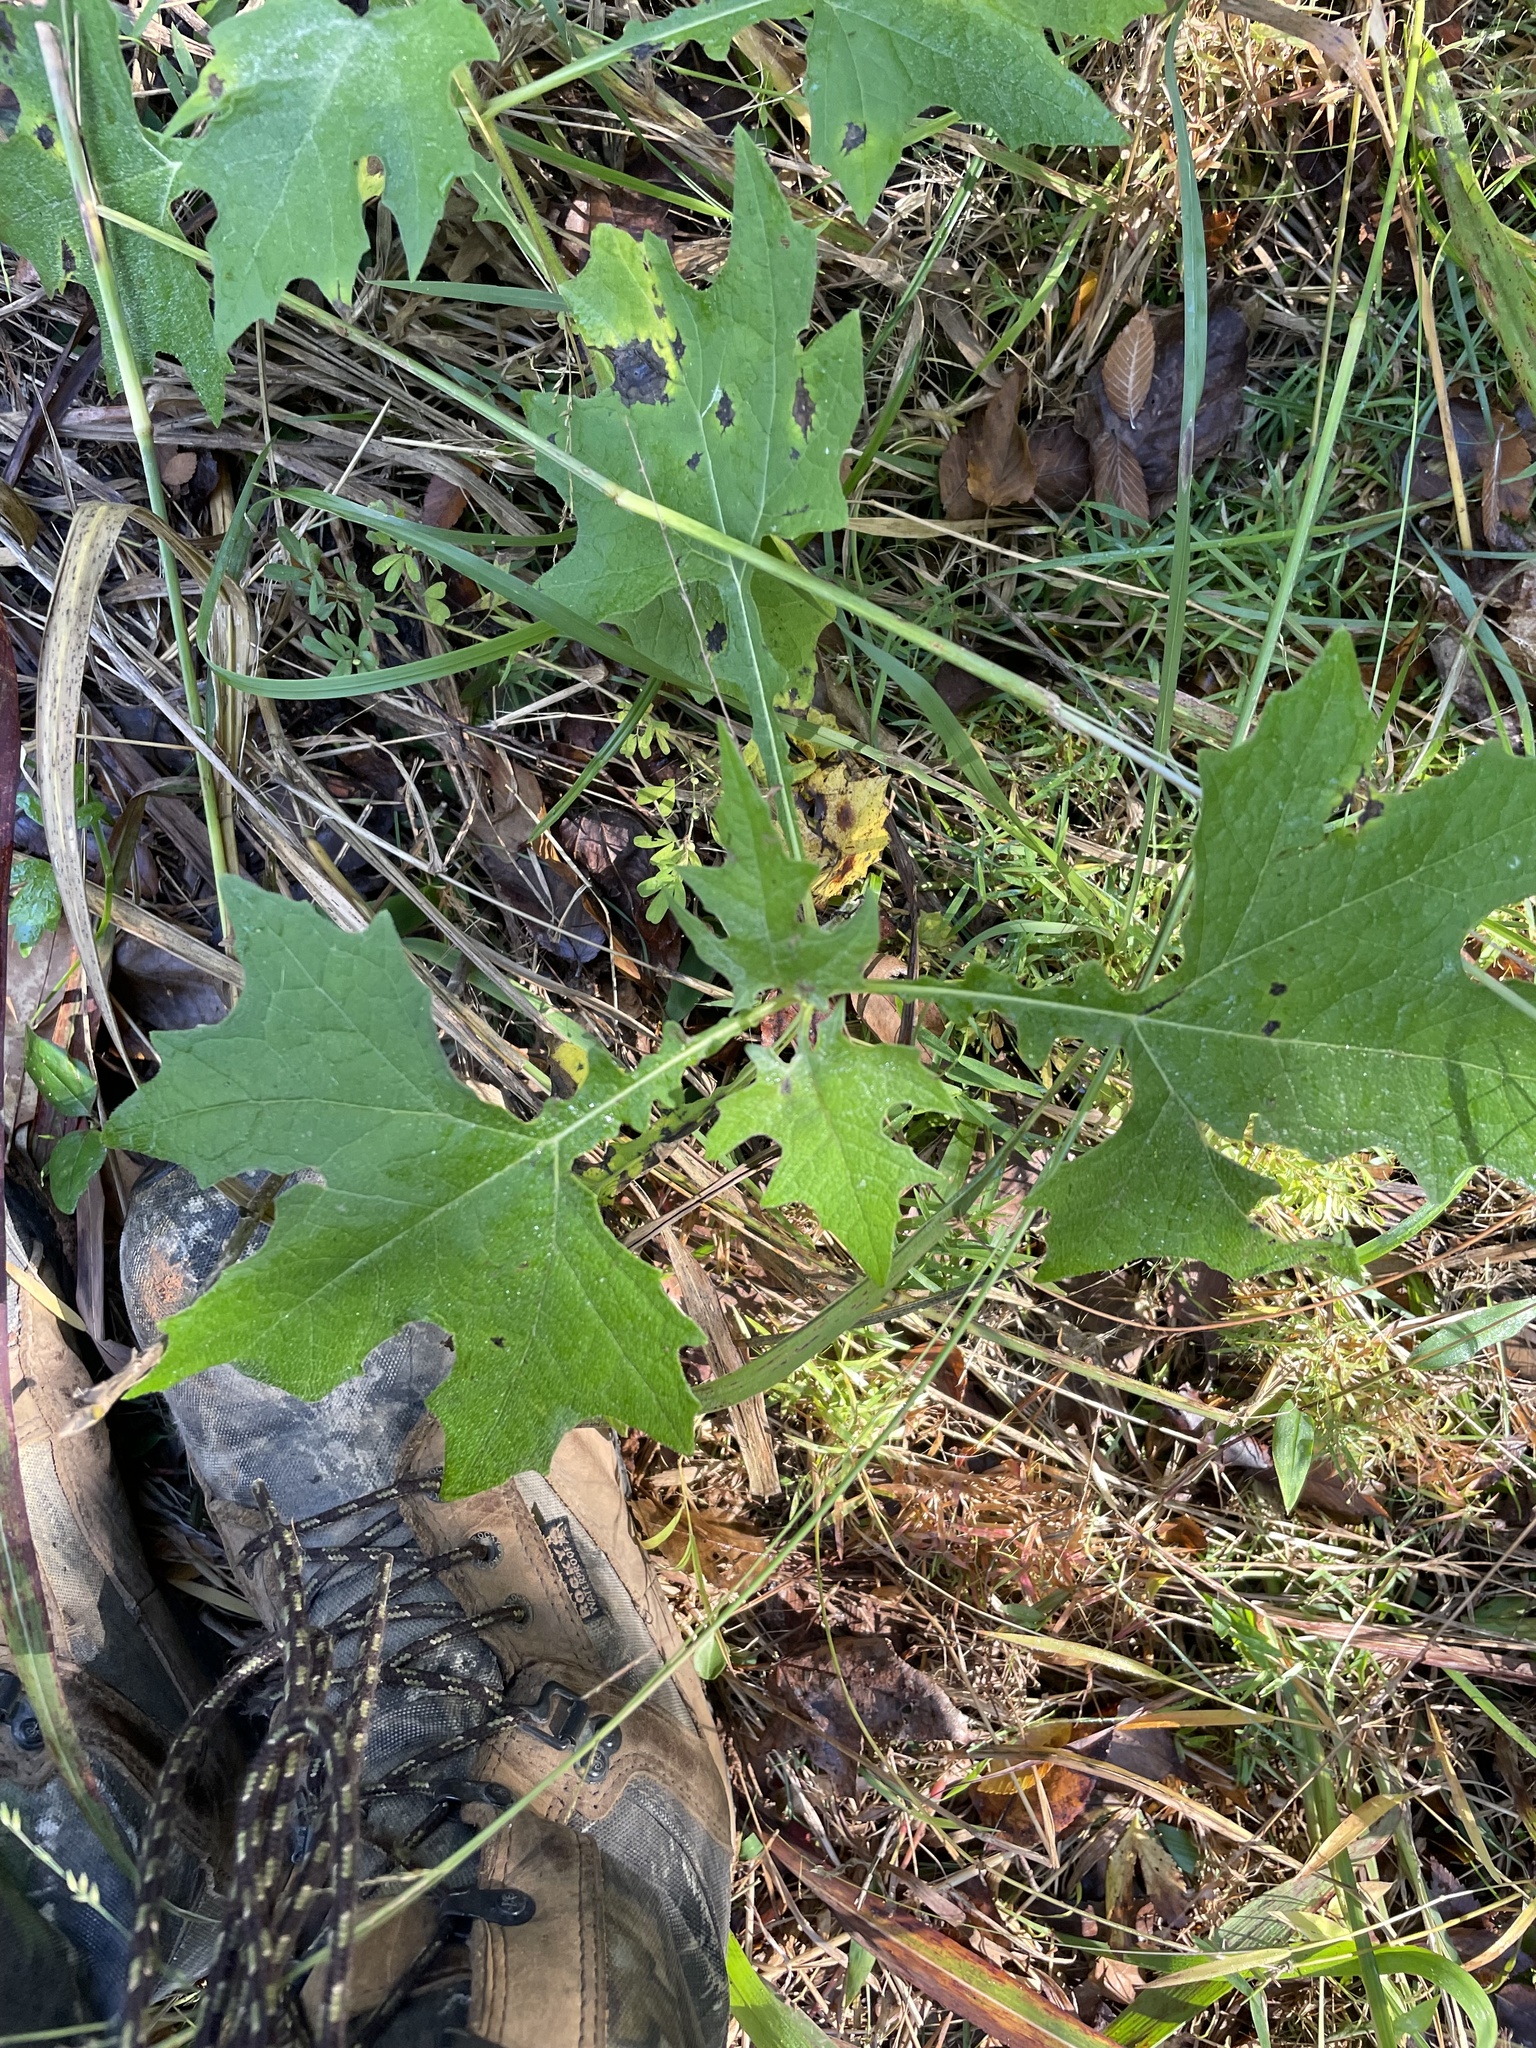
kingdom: Plantae
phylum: Tracheophyta
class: Magnoliopsida
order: Asterales
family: Asteraceae
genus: Smallanthus
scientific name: Smallanthus uvedalia
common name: Bear's-foot
